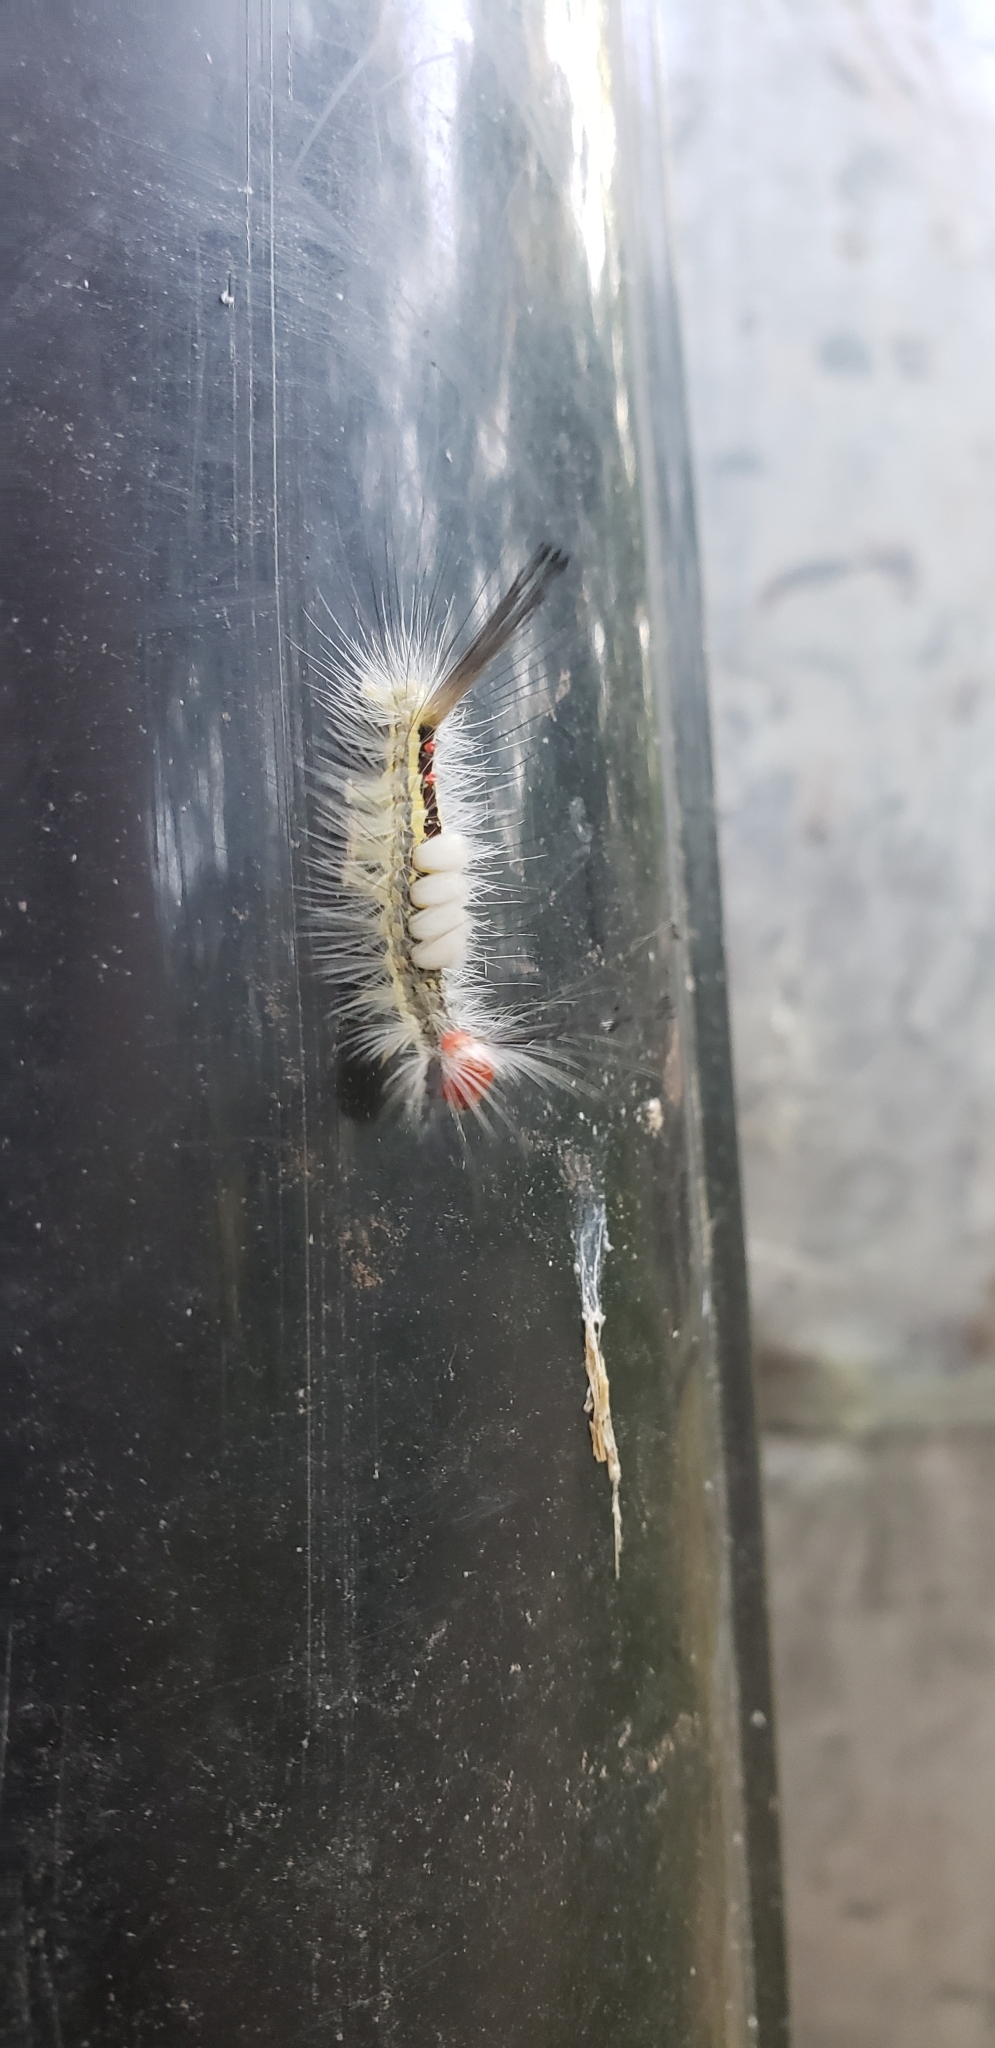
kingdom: Animalia
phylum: Arthropoda
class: Insecta
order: Lepidoptera
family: Erebidae
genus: Orgyia
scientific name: Orgyia leucostigma
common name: White-marked tussock moth
